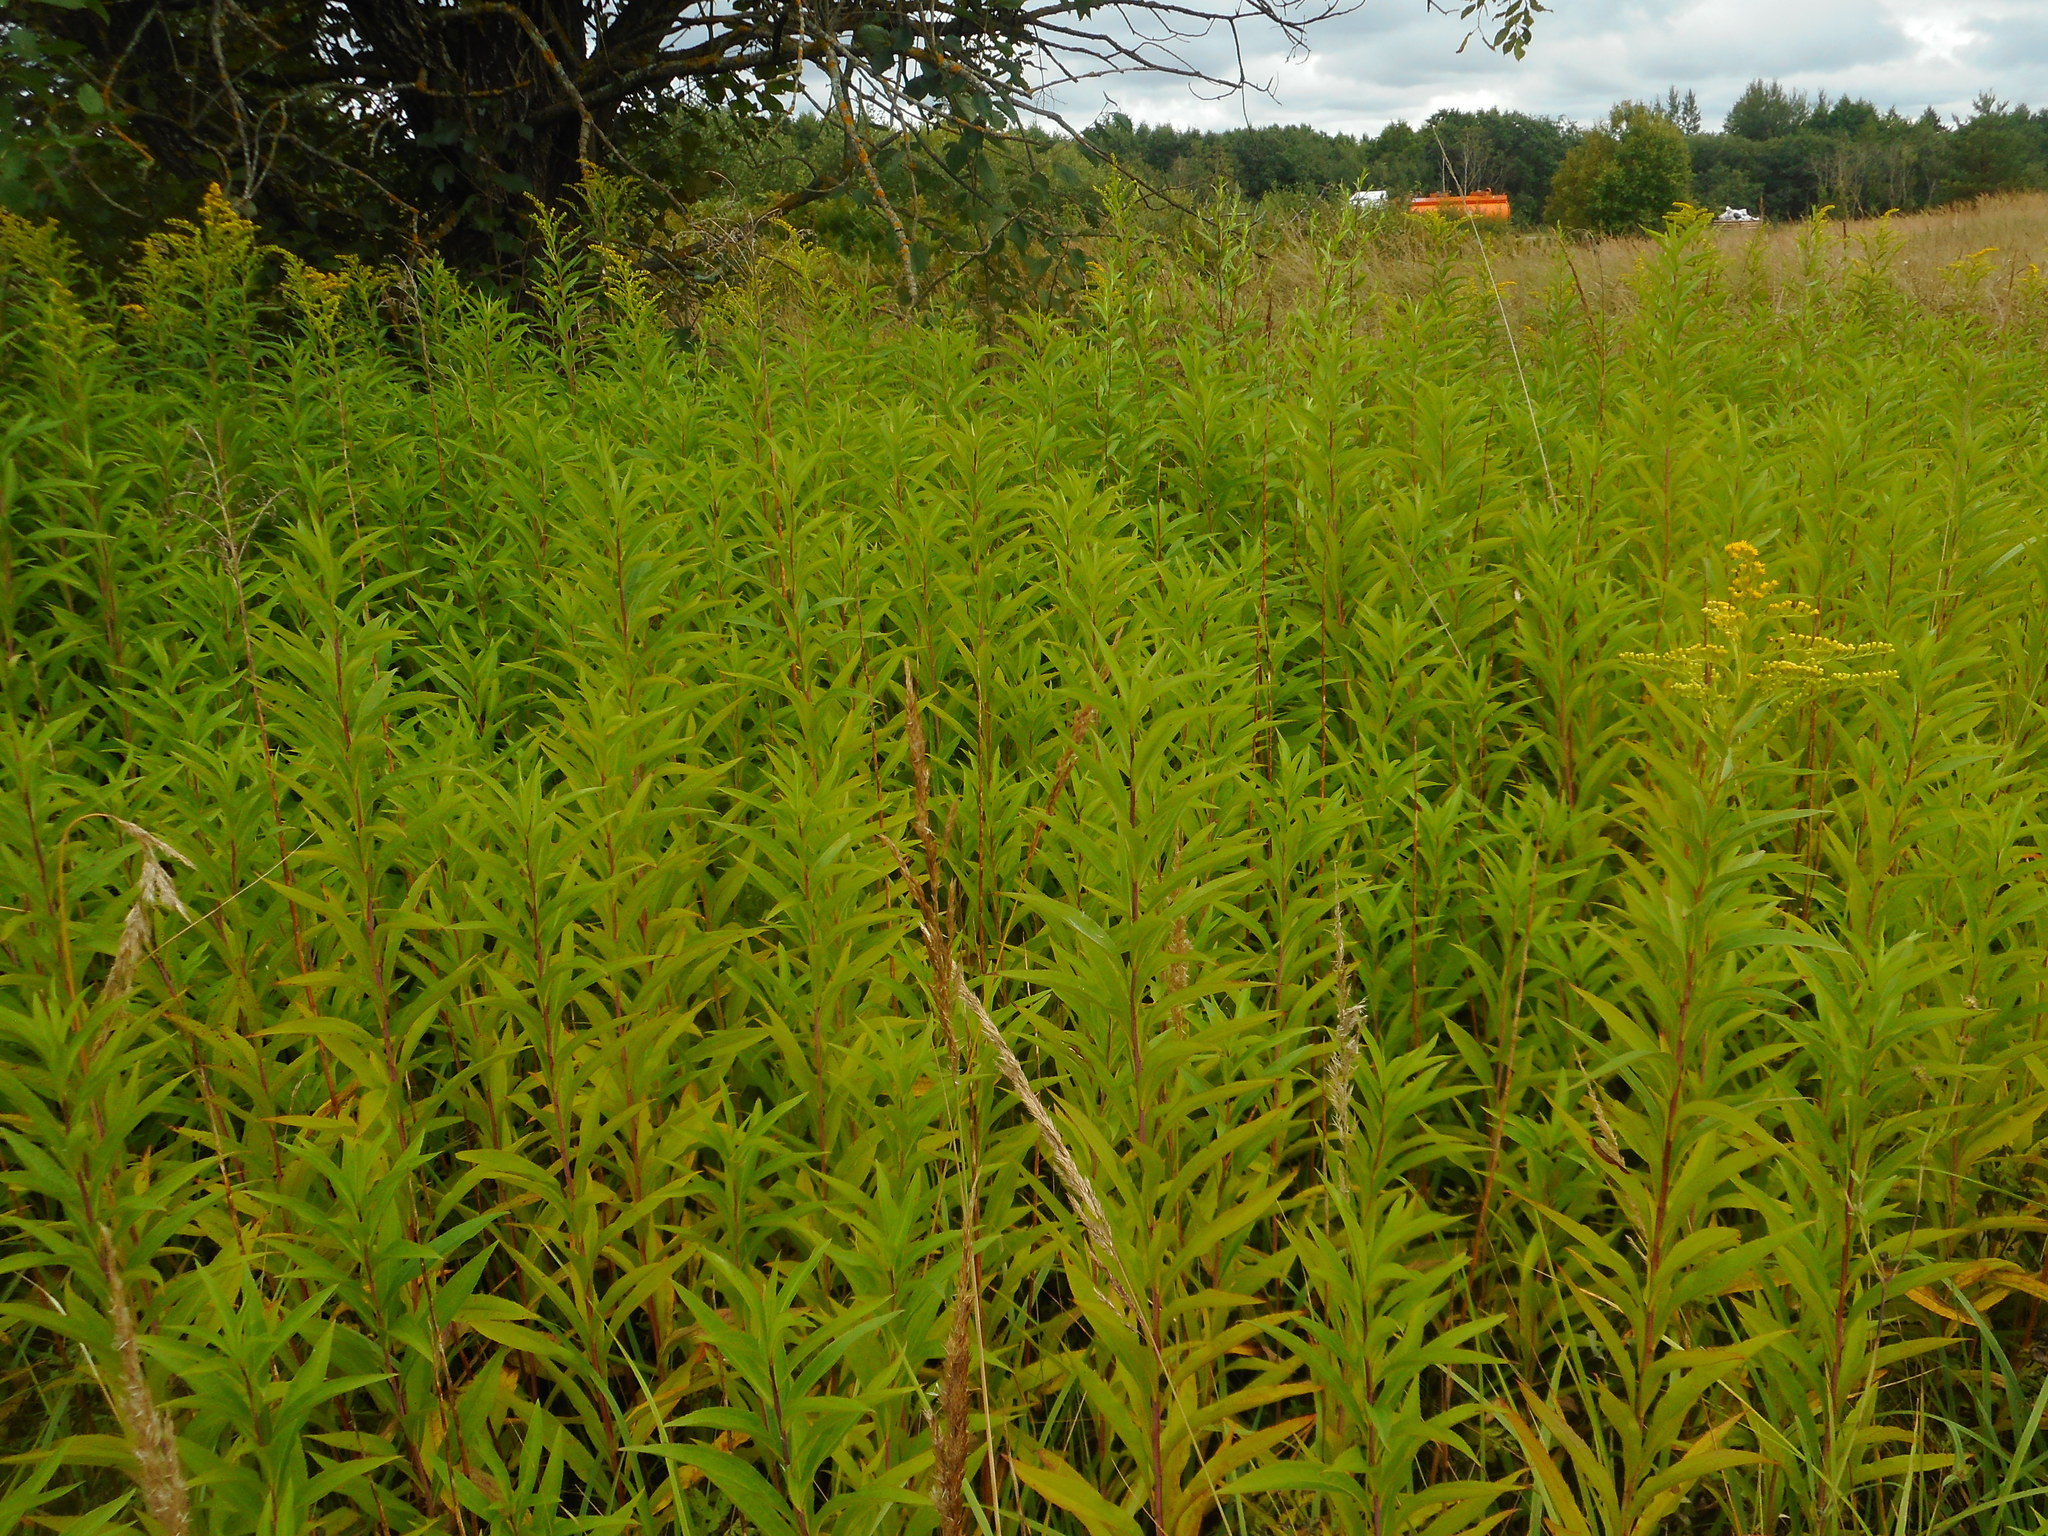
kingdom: Plantae
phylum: Tracheophyta
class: Magnoliopsida
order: Asterales
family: Asteraceae
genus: Solidago
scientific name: Solidago canadensis
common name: Canada goldenrod
